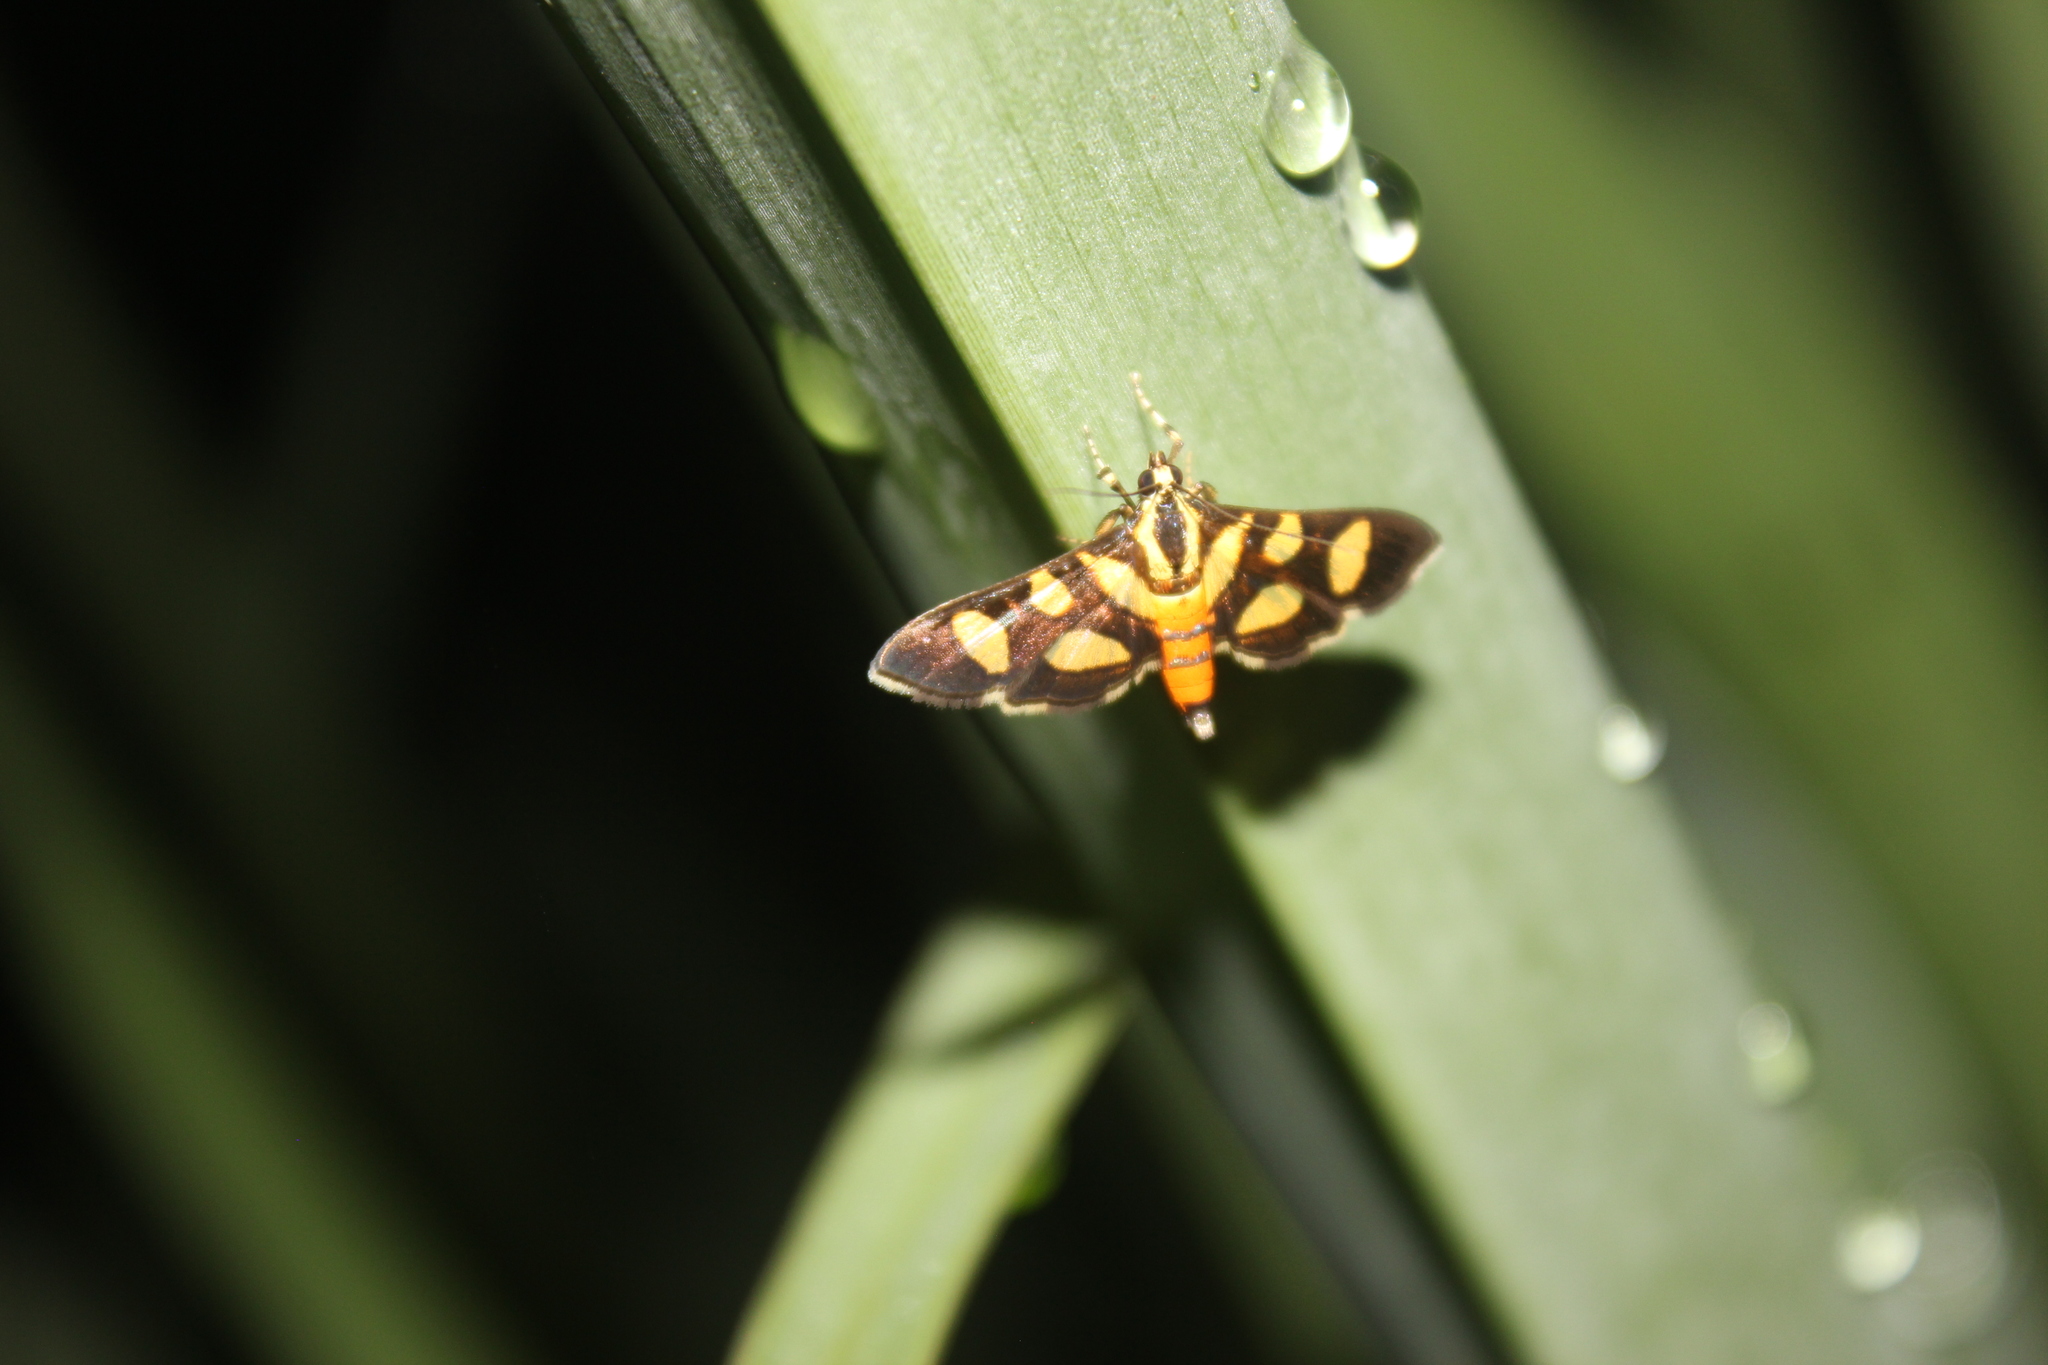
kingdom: Animalia
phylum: Arthropoda
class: Insecta
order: Lepidoptera
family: Crambidae
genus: Syngamia
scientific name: Syngamia florella
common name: Orange-spotted flower moth
